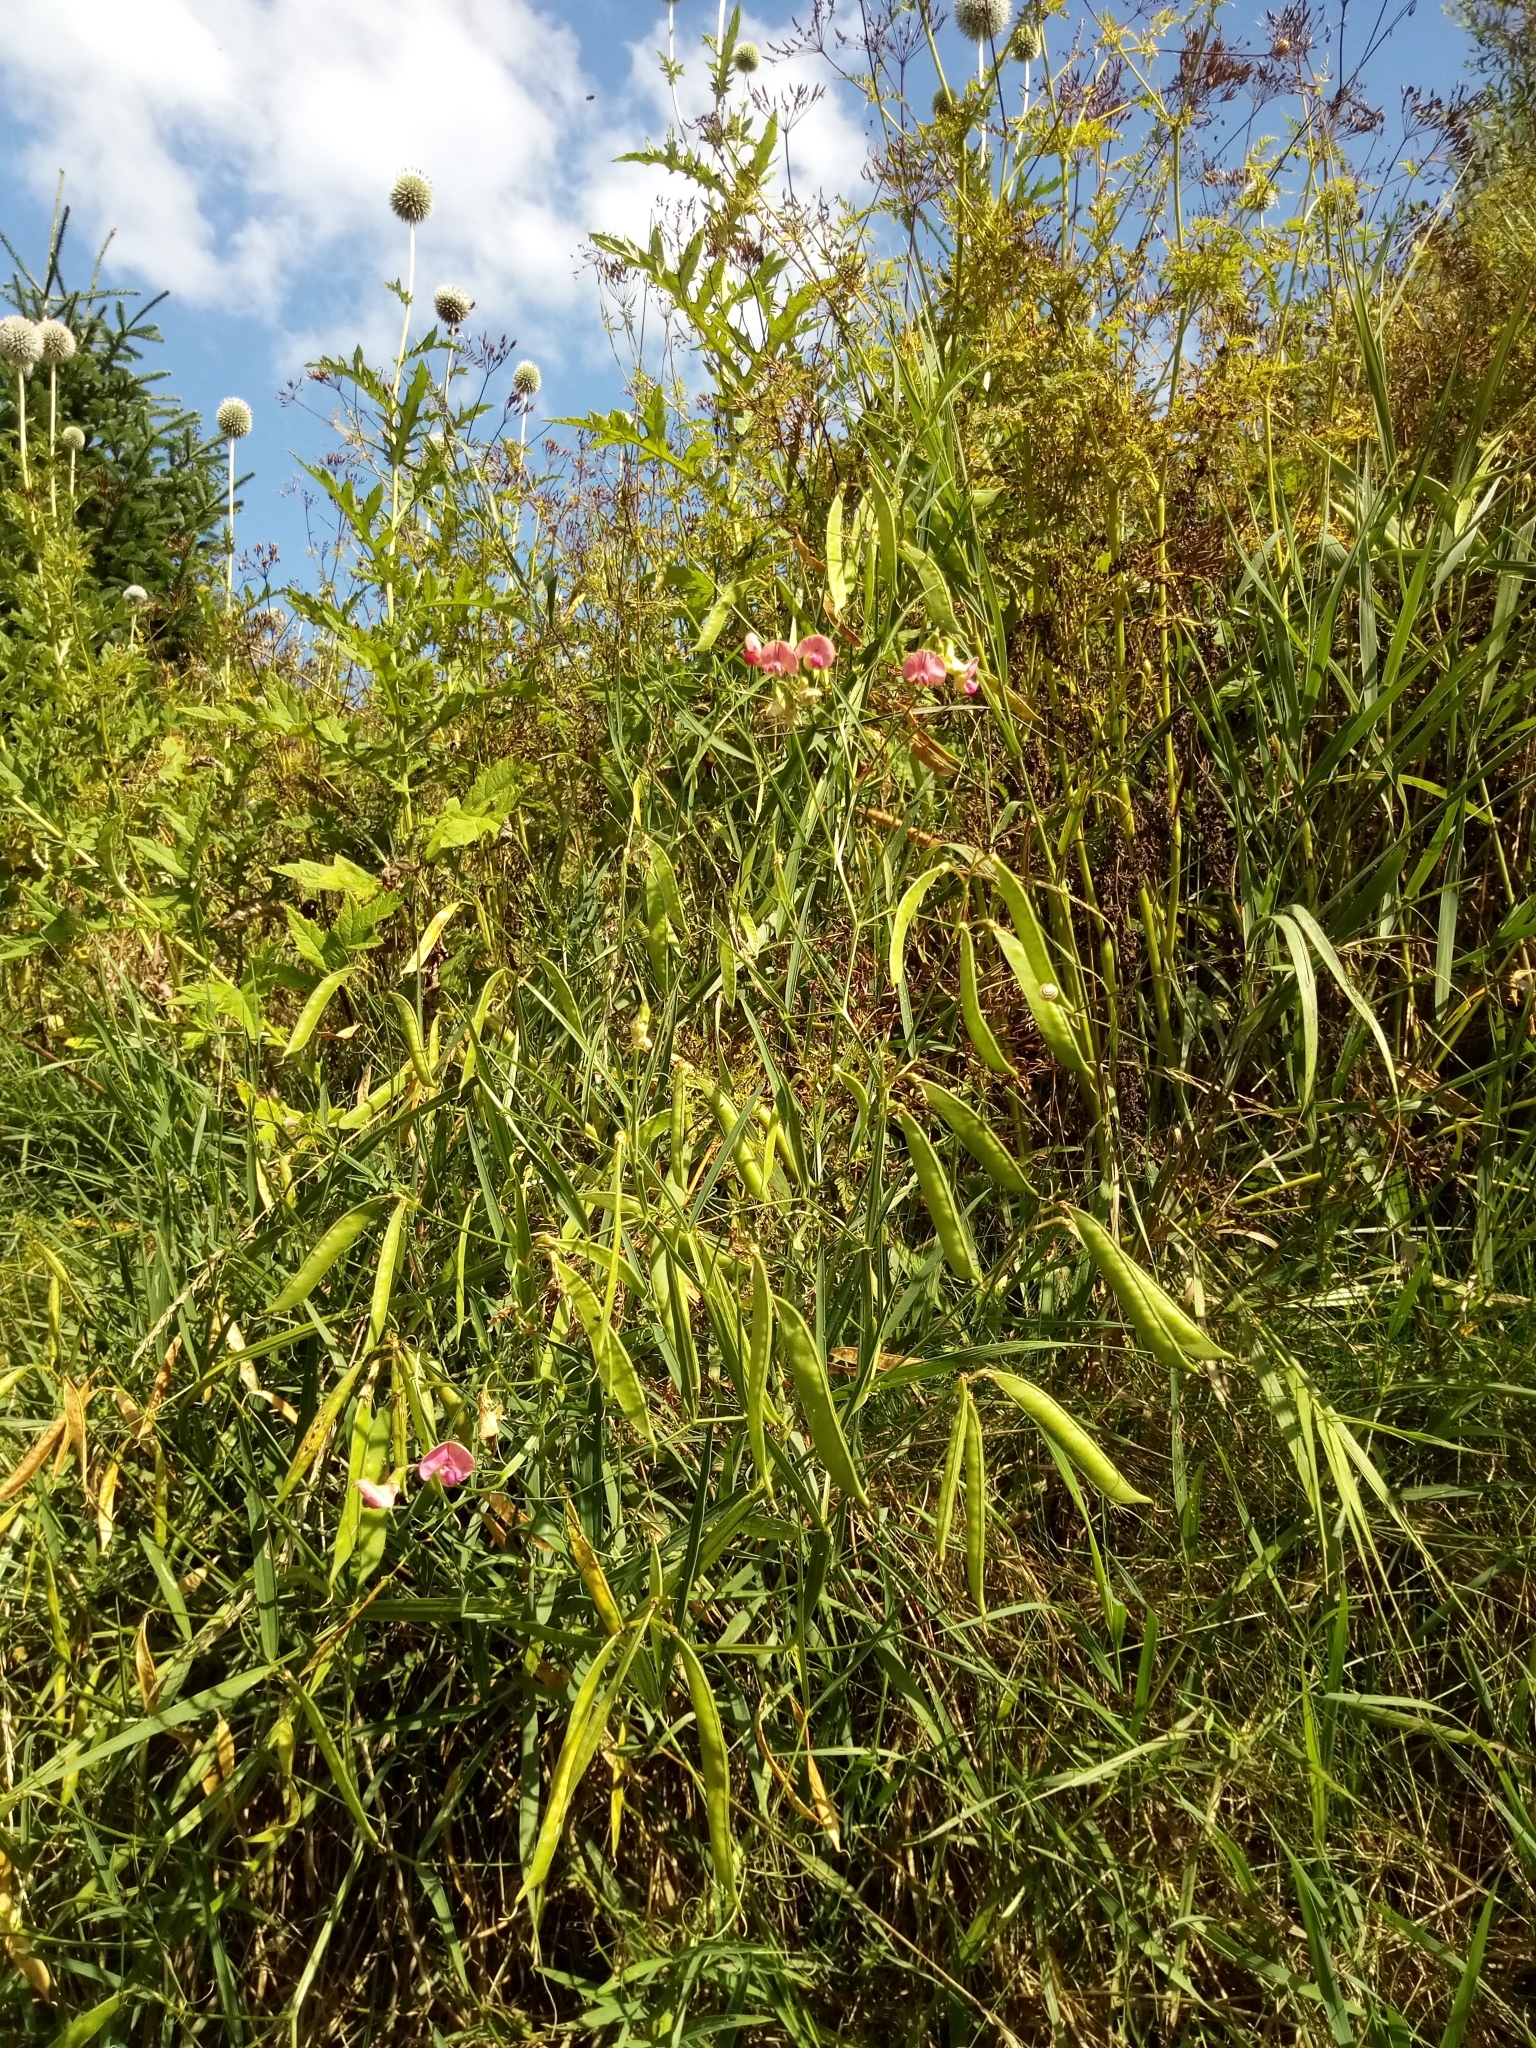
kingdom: Plantae
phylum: Tracheophyta
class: Magnoliopsida
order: Fabales
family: Fabaceae
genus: Lathyrus
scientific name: Lathyrus sylvestris
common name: Flat pea
